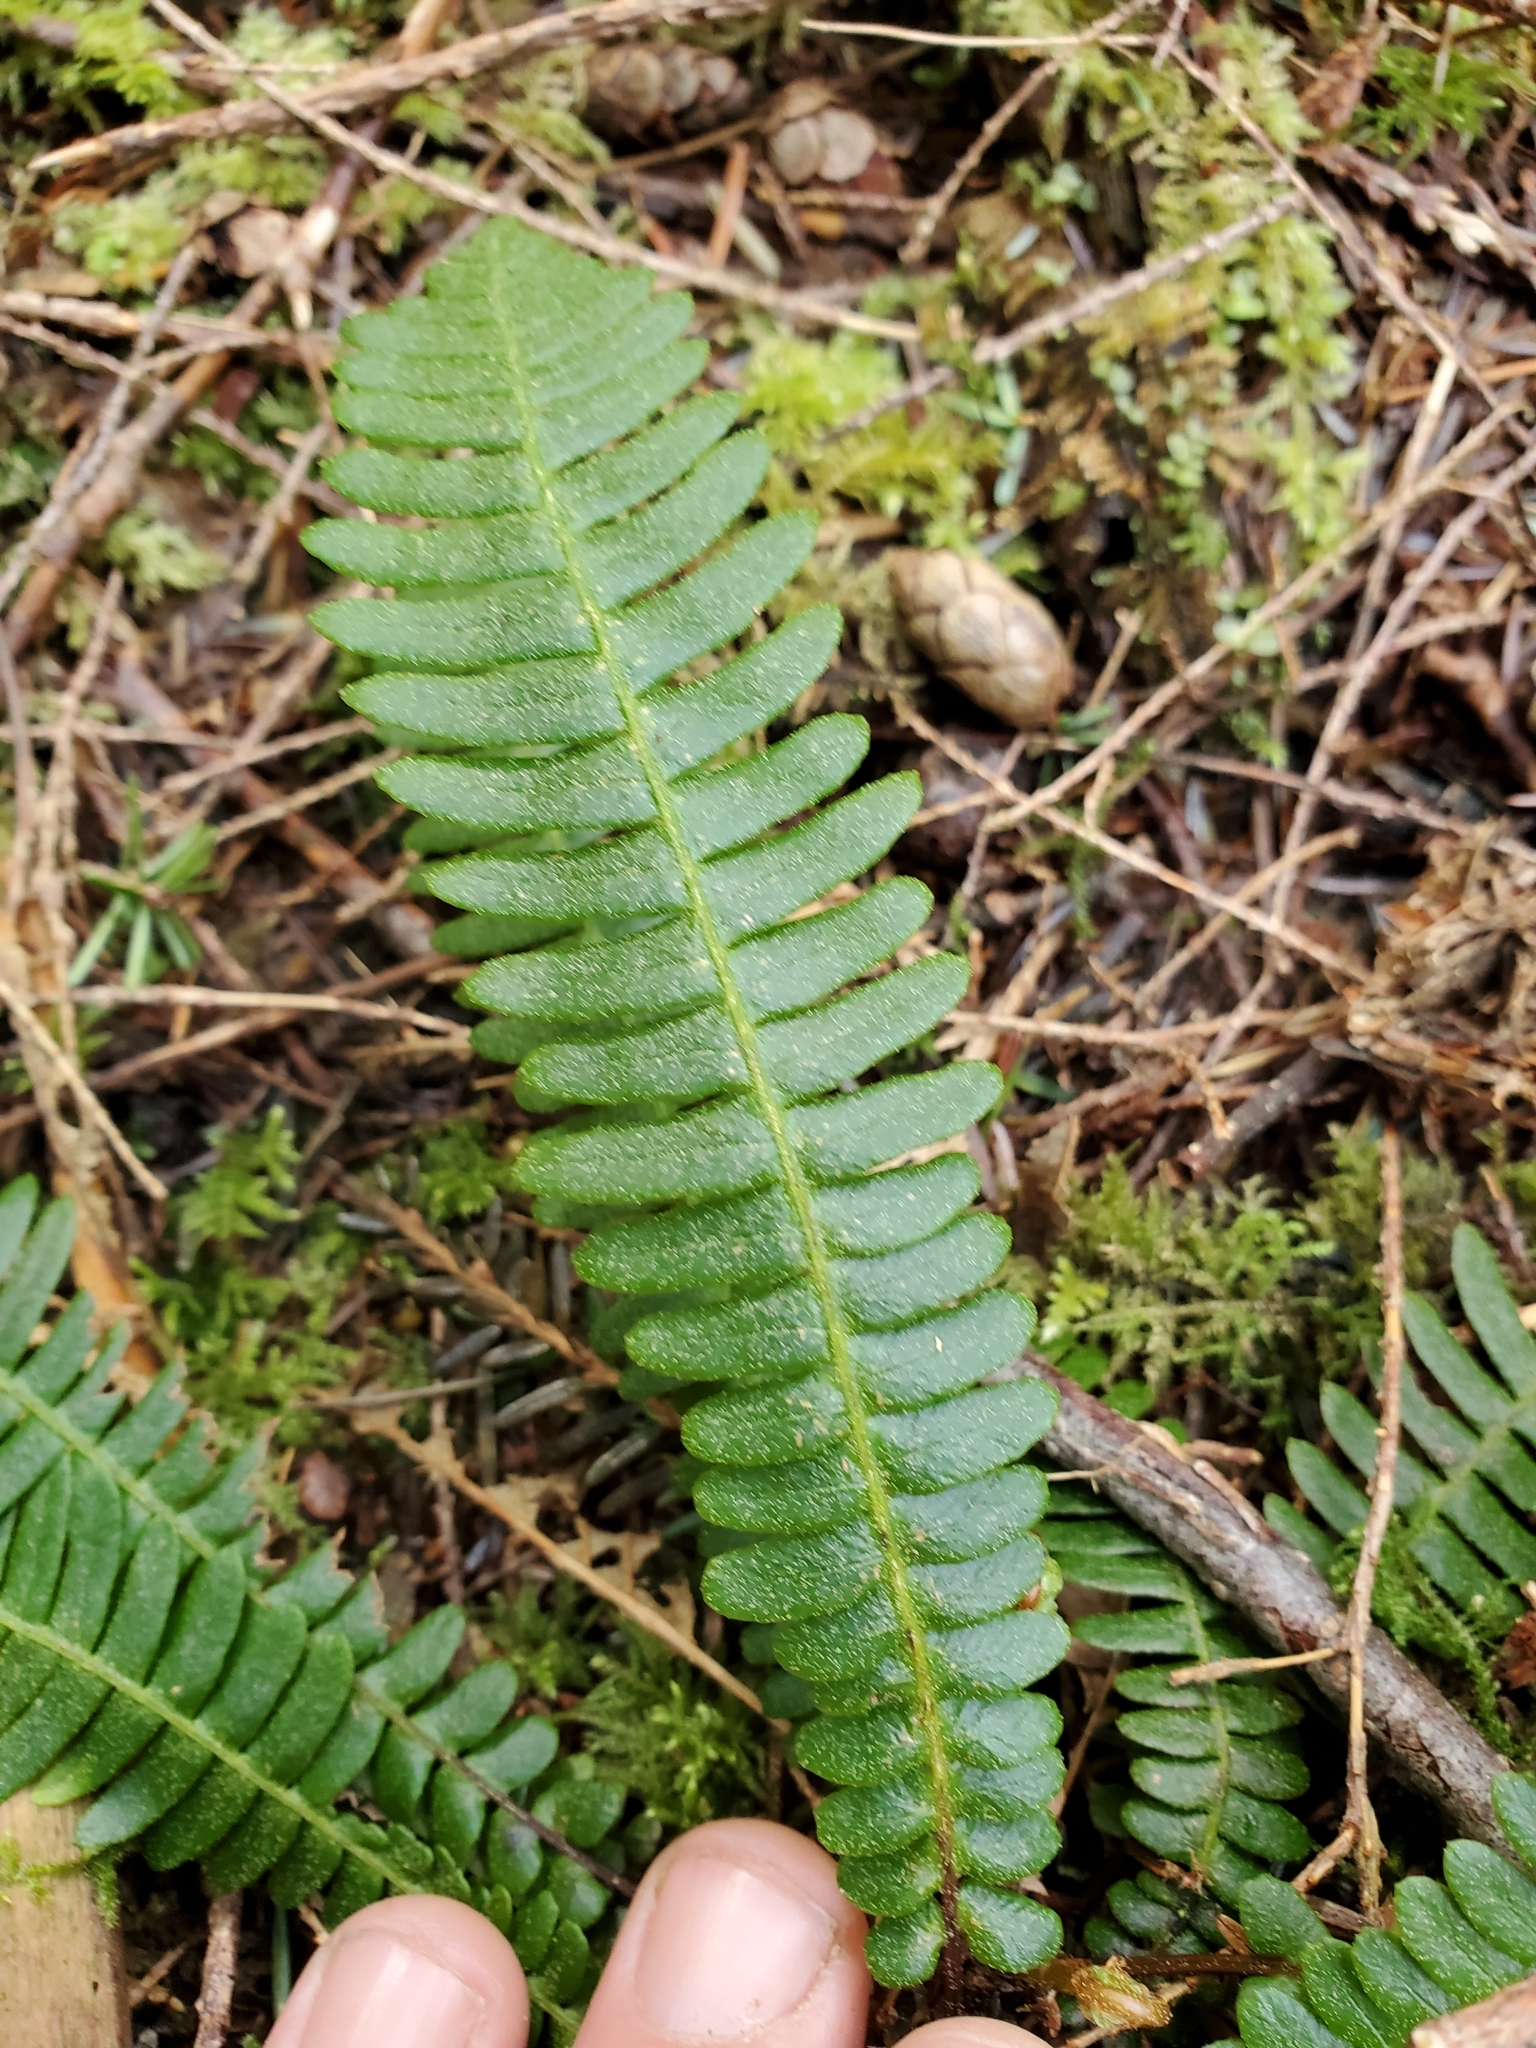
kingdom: Plantae
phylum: Tracheophyta
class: Polypodiopsida
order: Polypodiales
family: Blechnaceae
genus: Struthiopteris
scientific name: Struthiopteris spicant
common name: Deer fern
